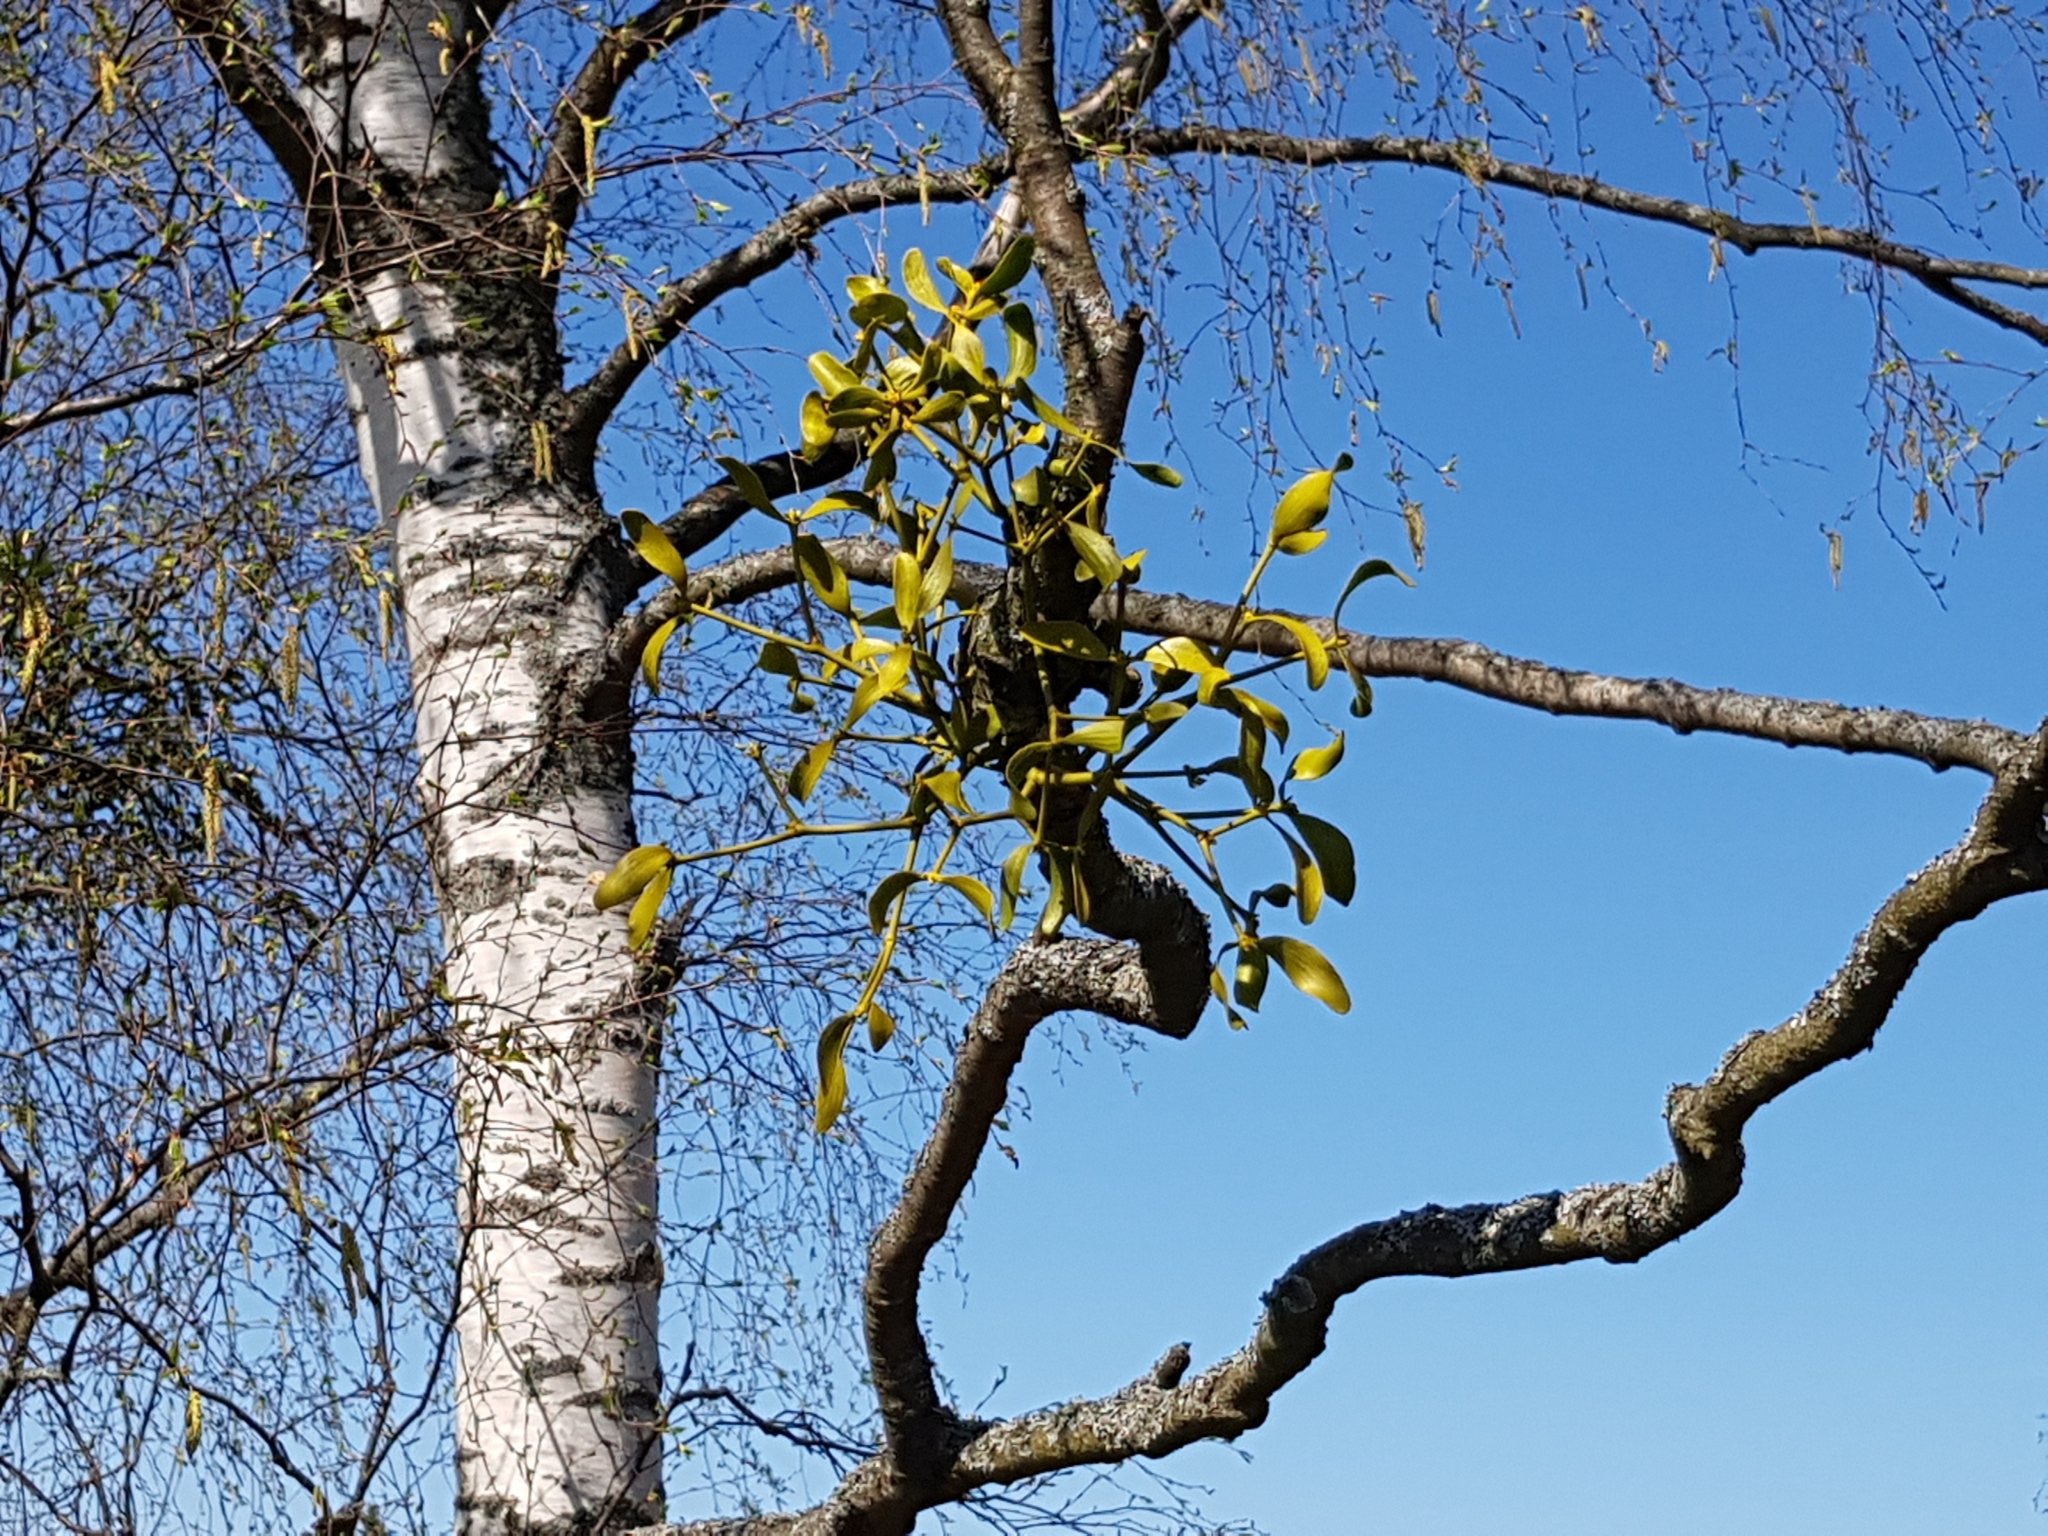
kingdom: Plantae
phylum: Tracheophyta
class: Magnoliopsida
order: Santalales
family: Viscaceae
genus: Viscum
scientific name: Viscum album
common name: Mistletoe
